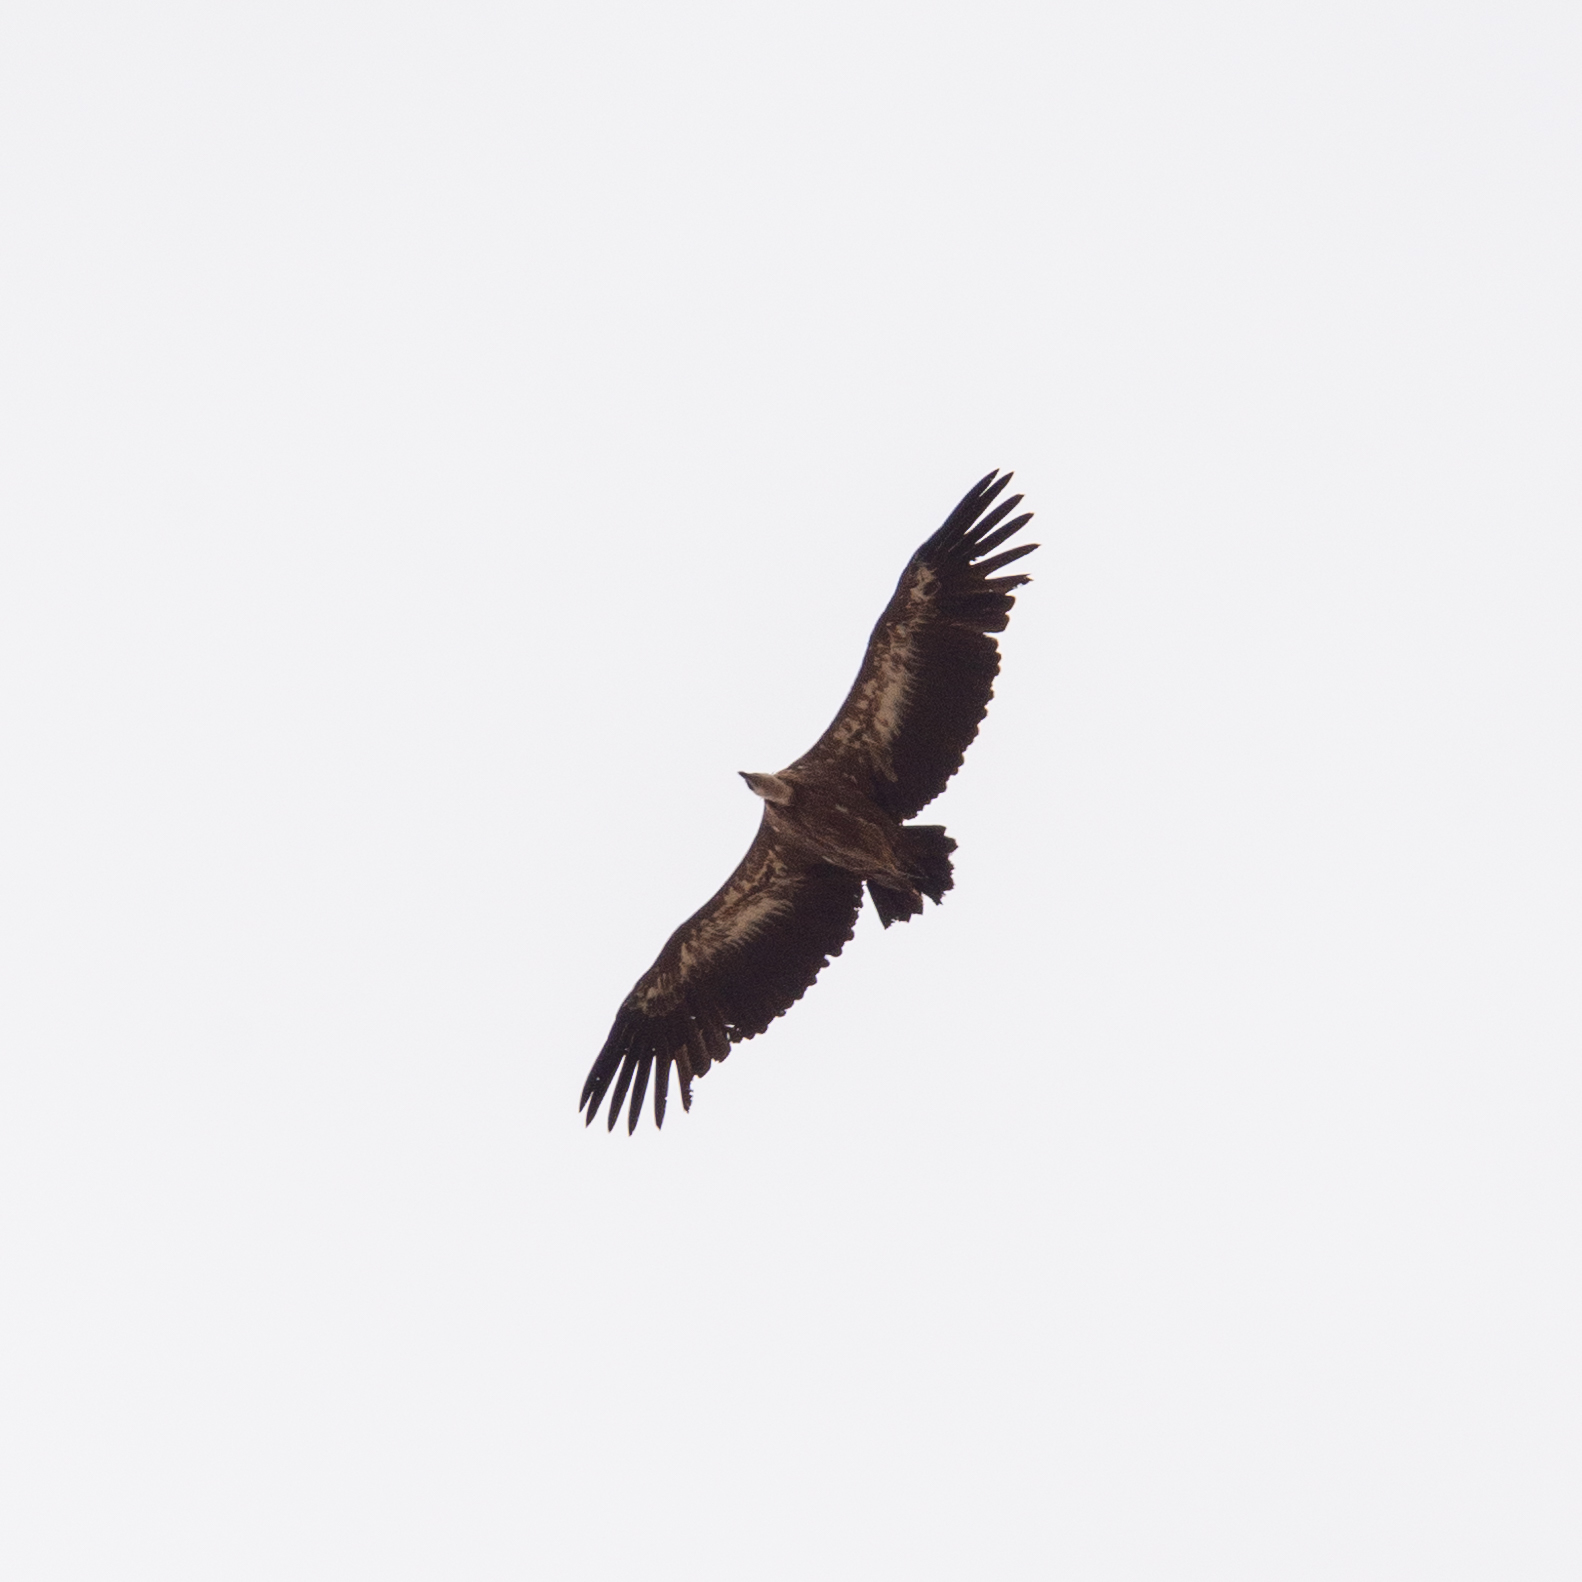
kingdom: Animalia
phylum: Chordata
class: Aves
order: Accipitriformes
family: Accipitridae
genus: Gyps
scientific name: Gyps fulvus
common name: Griffon vulture
